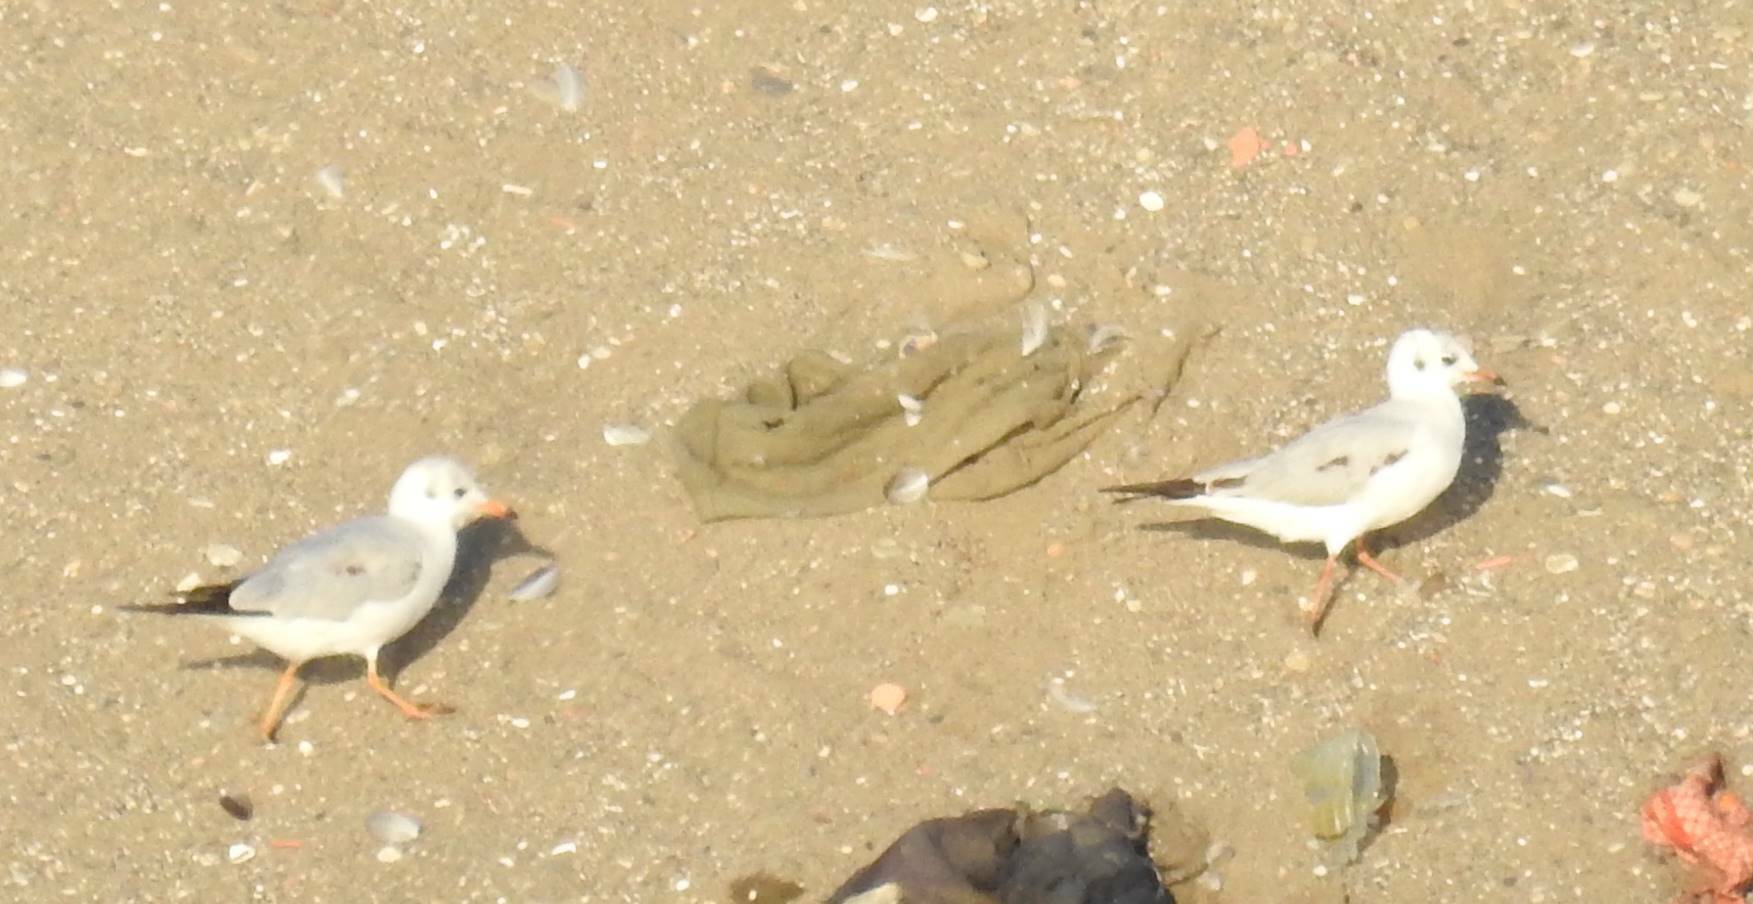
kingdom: Animalia
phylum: Chordata
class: Aves
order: Charadriiformes
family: Laridae
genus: Chroicocephalus
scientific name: Chroicocephalus ridibundus
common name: Black-headed gull
